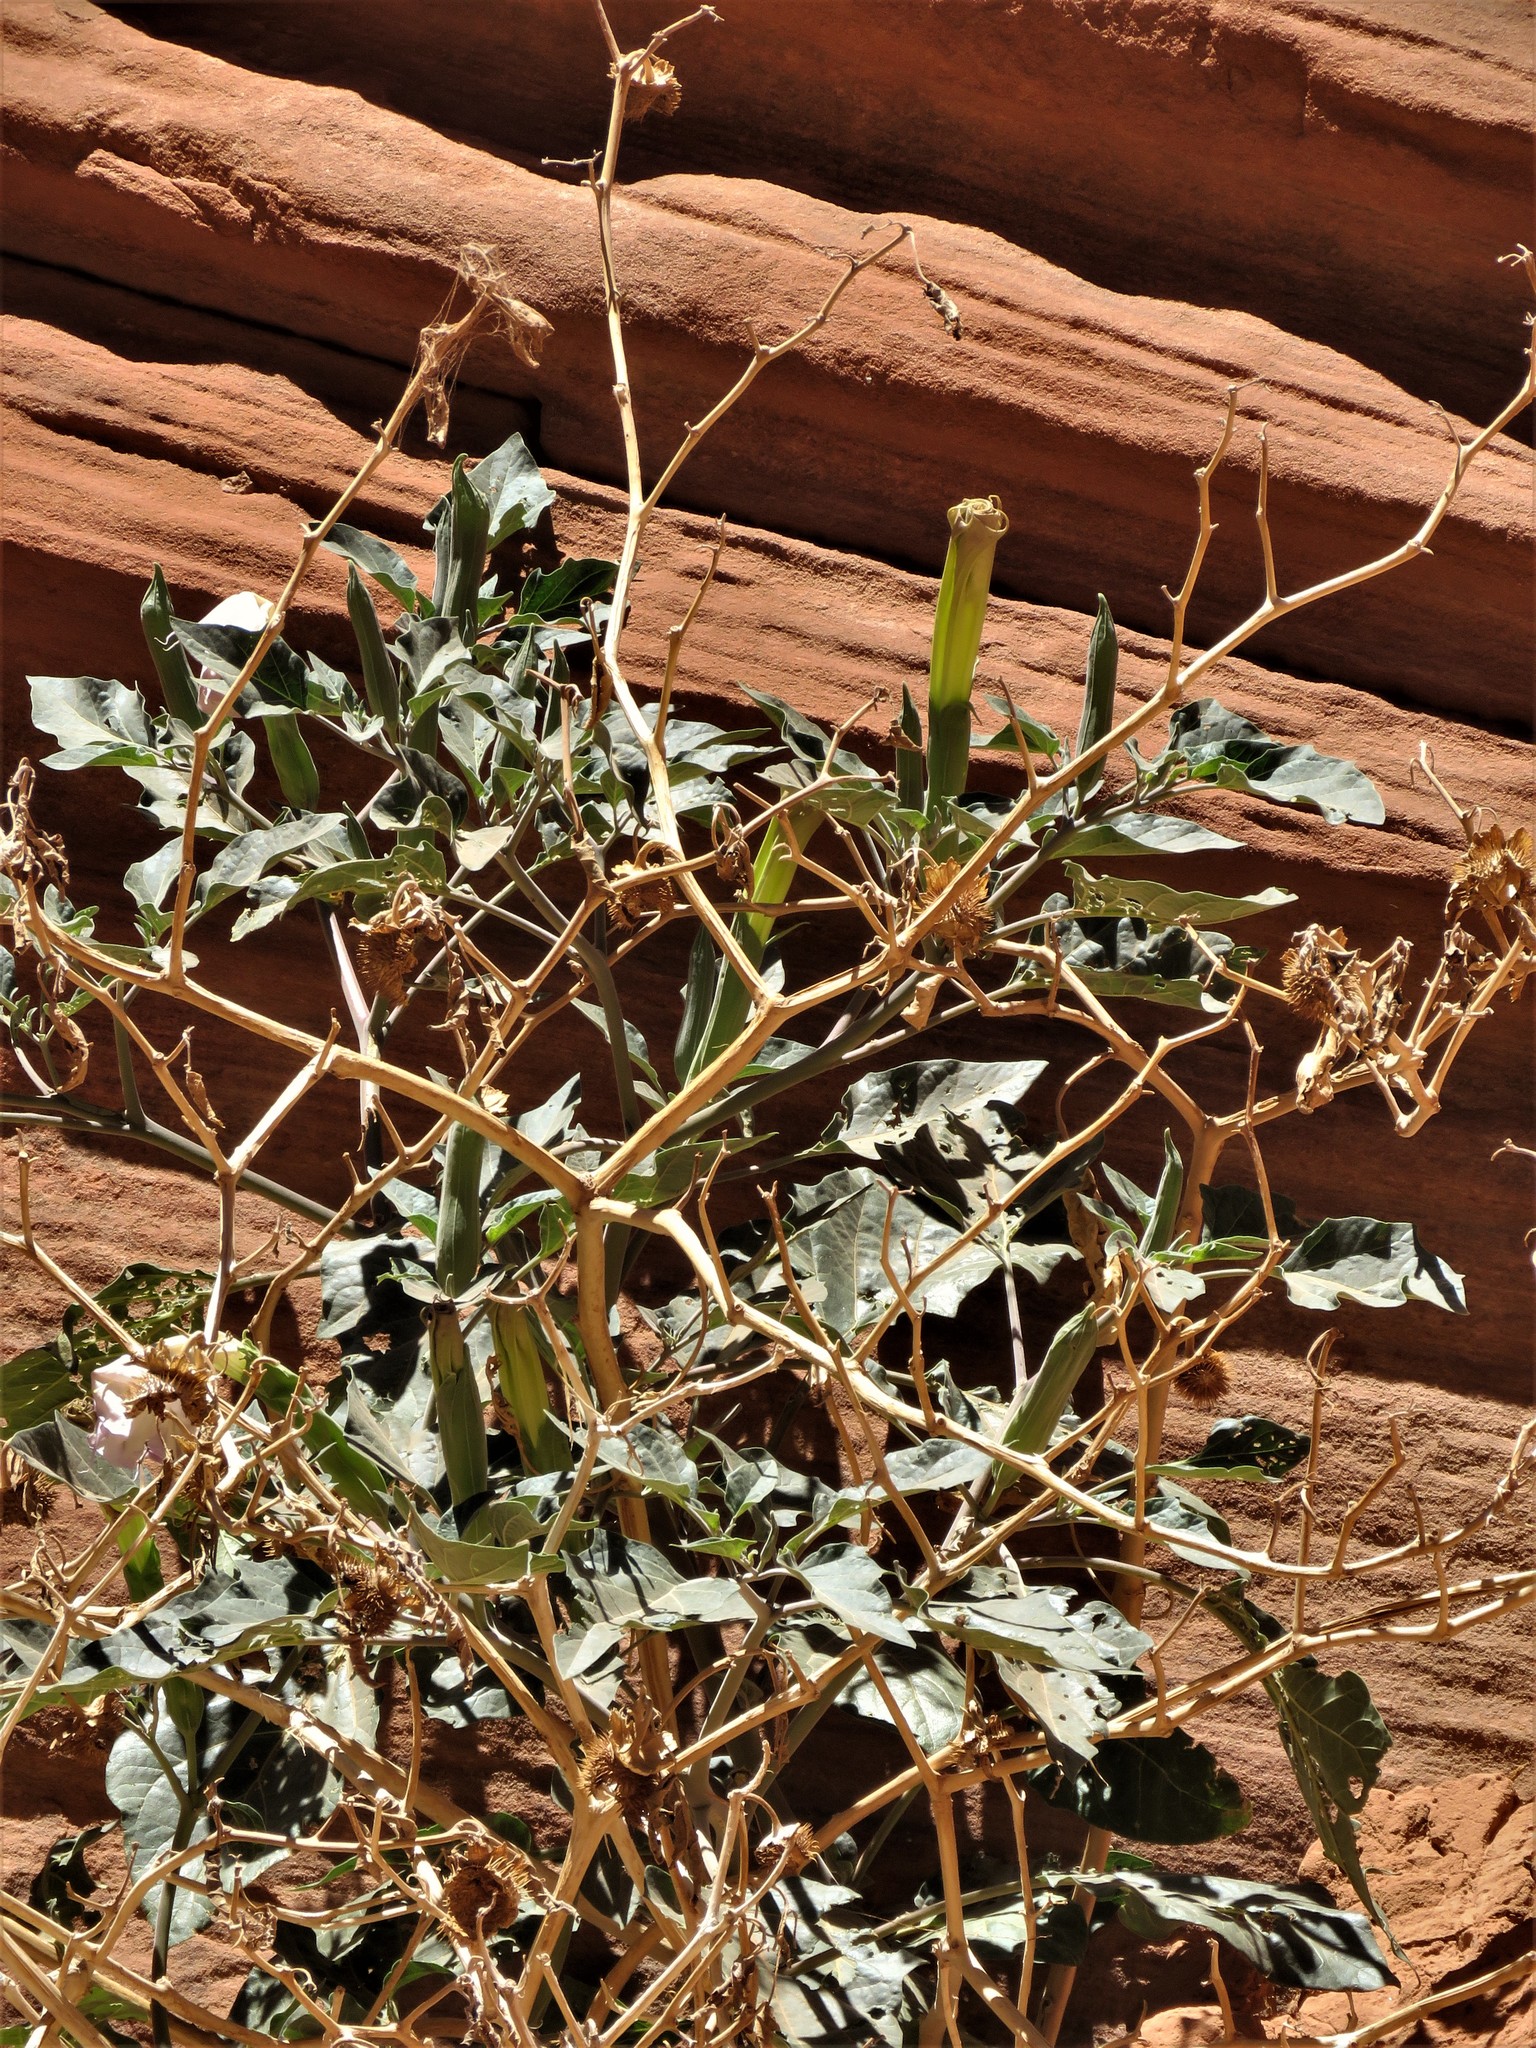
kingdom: Plantae
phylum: Tracheophyta
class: Magnoliopsida
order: Solanales
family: Solanaceae
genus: Datura
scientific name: Datura wrightii
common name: Sacred thorn-apple
